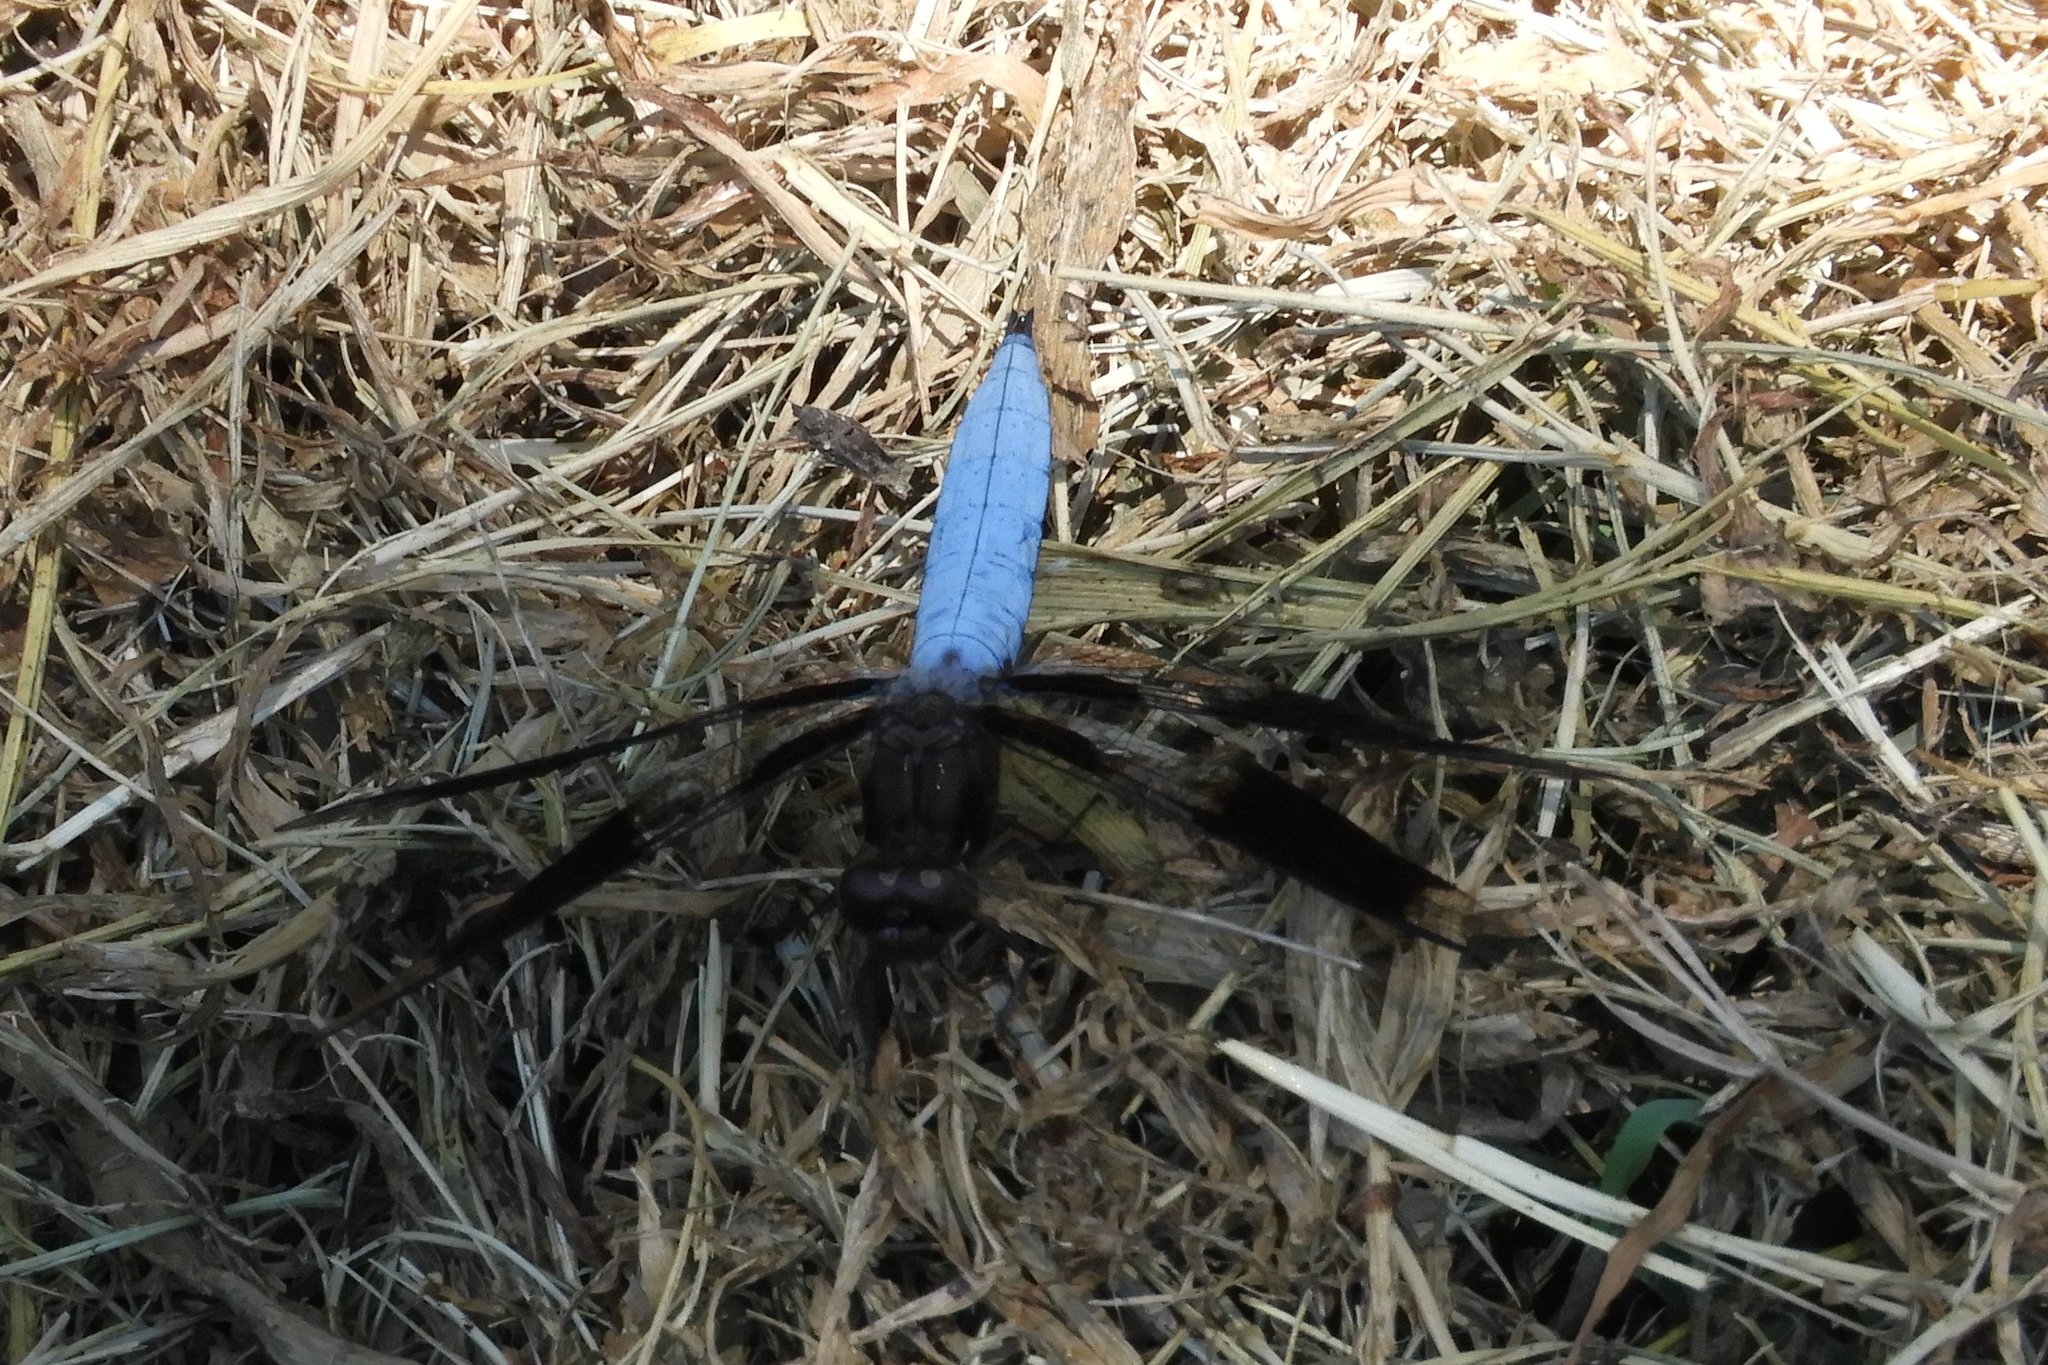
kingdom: Animalia
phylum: Arthropoda
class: Insecta
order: Odonata
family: Libellulidae
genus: Plathemis
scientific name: Plathemis lydia
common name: Common whitetail
